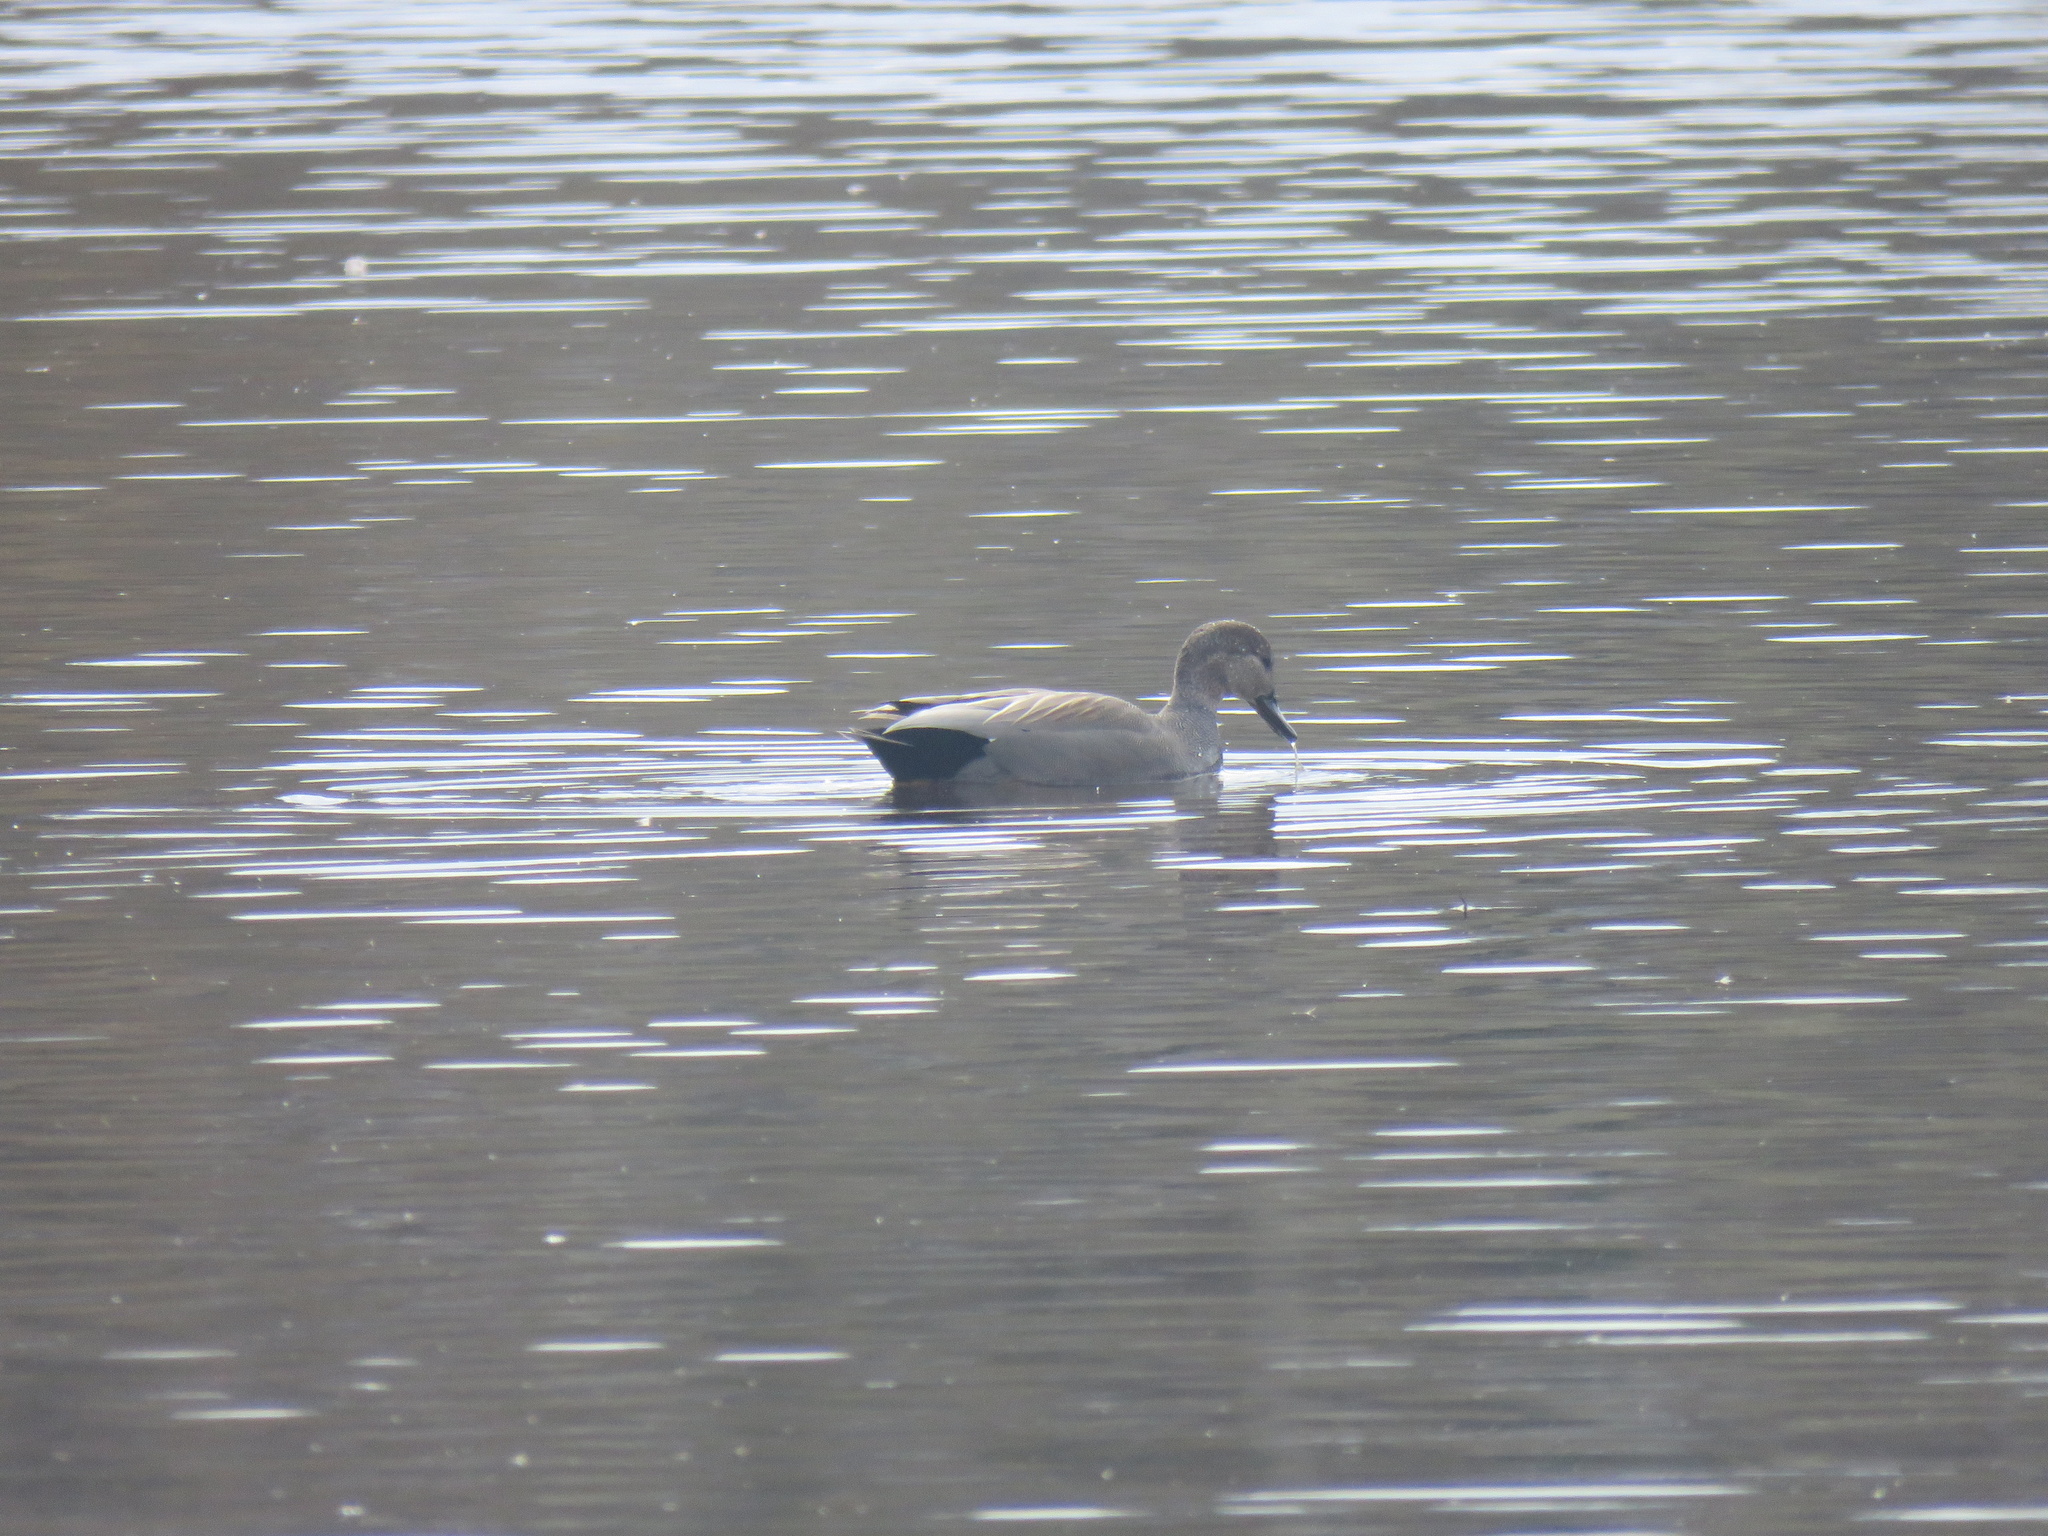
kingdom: Animalia
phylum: Chordata
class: Aves
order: Anseriformes
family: Anatidae
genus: Mareca
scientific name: Mareca strepera
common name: Gadwall
